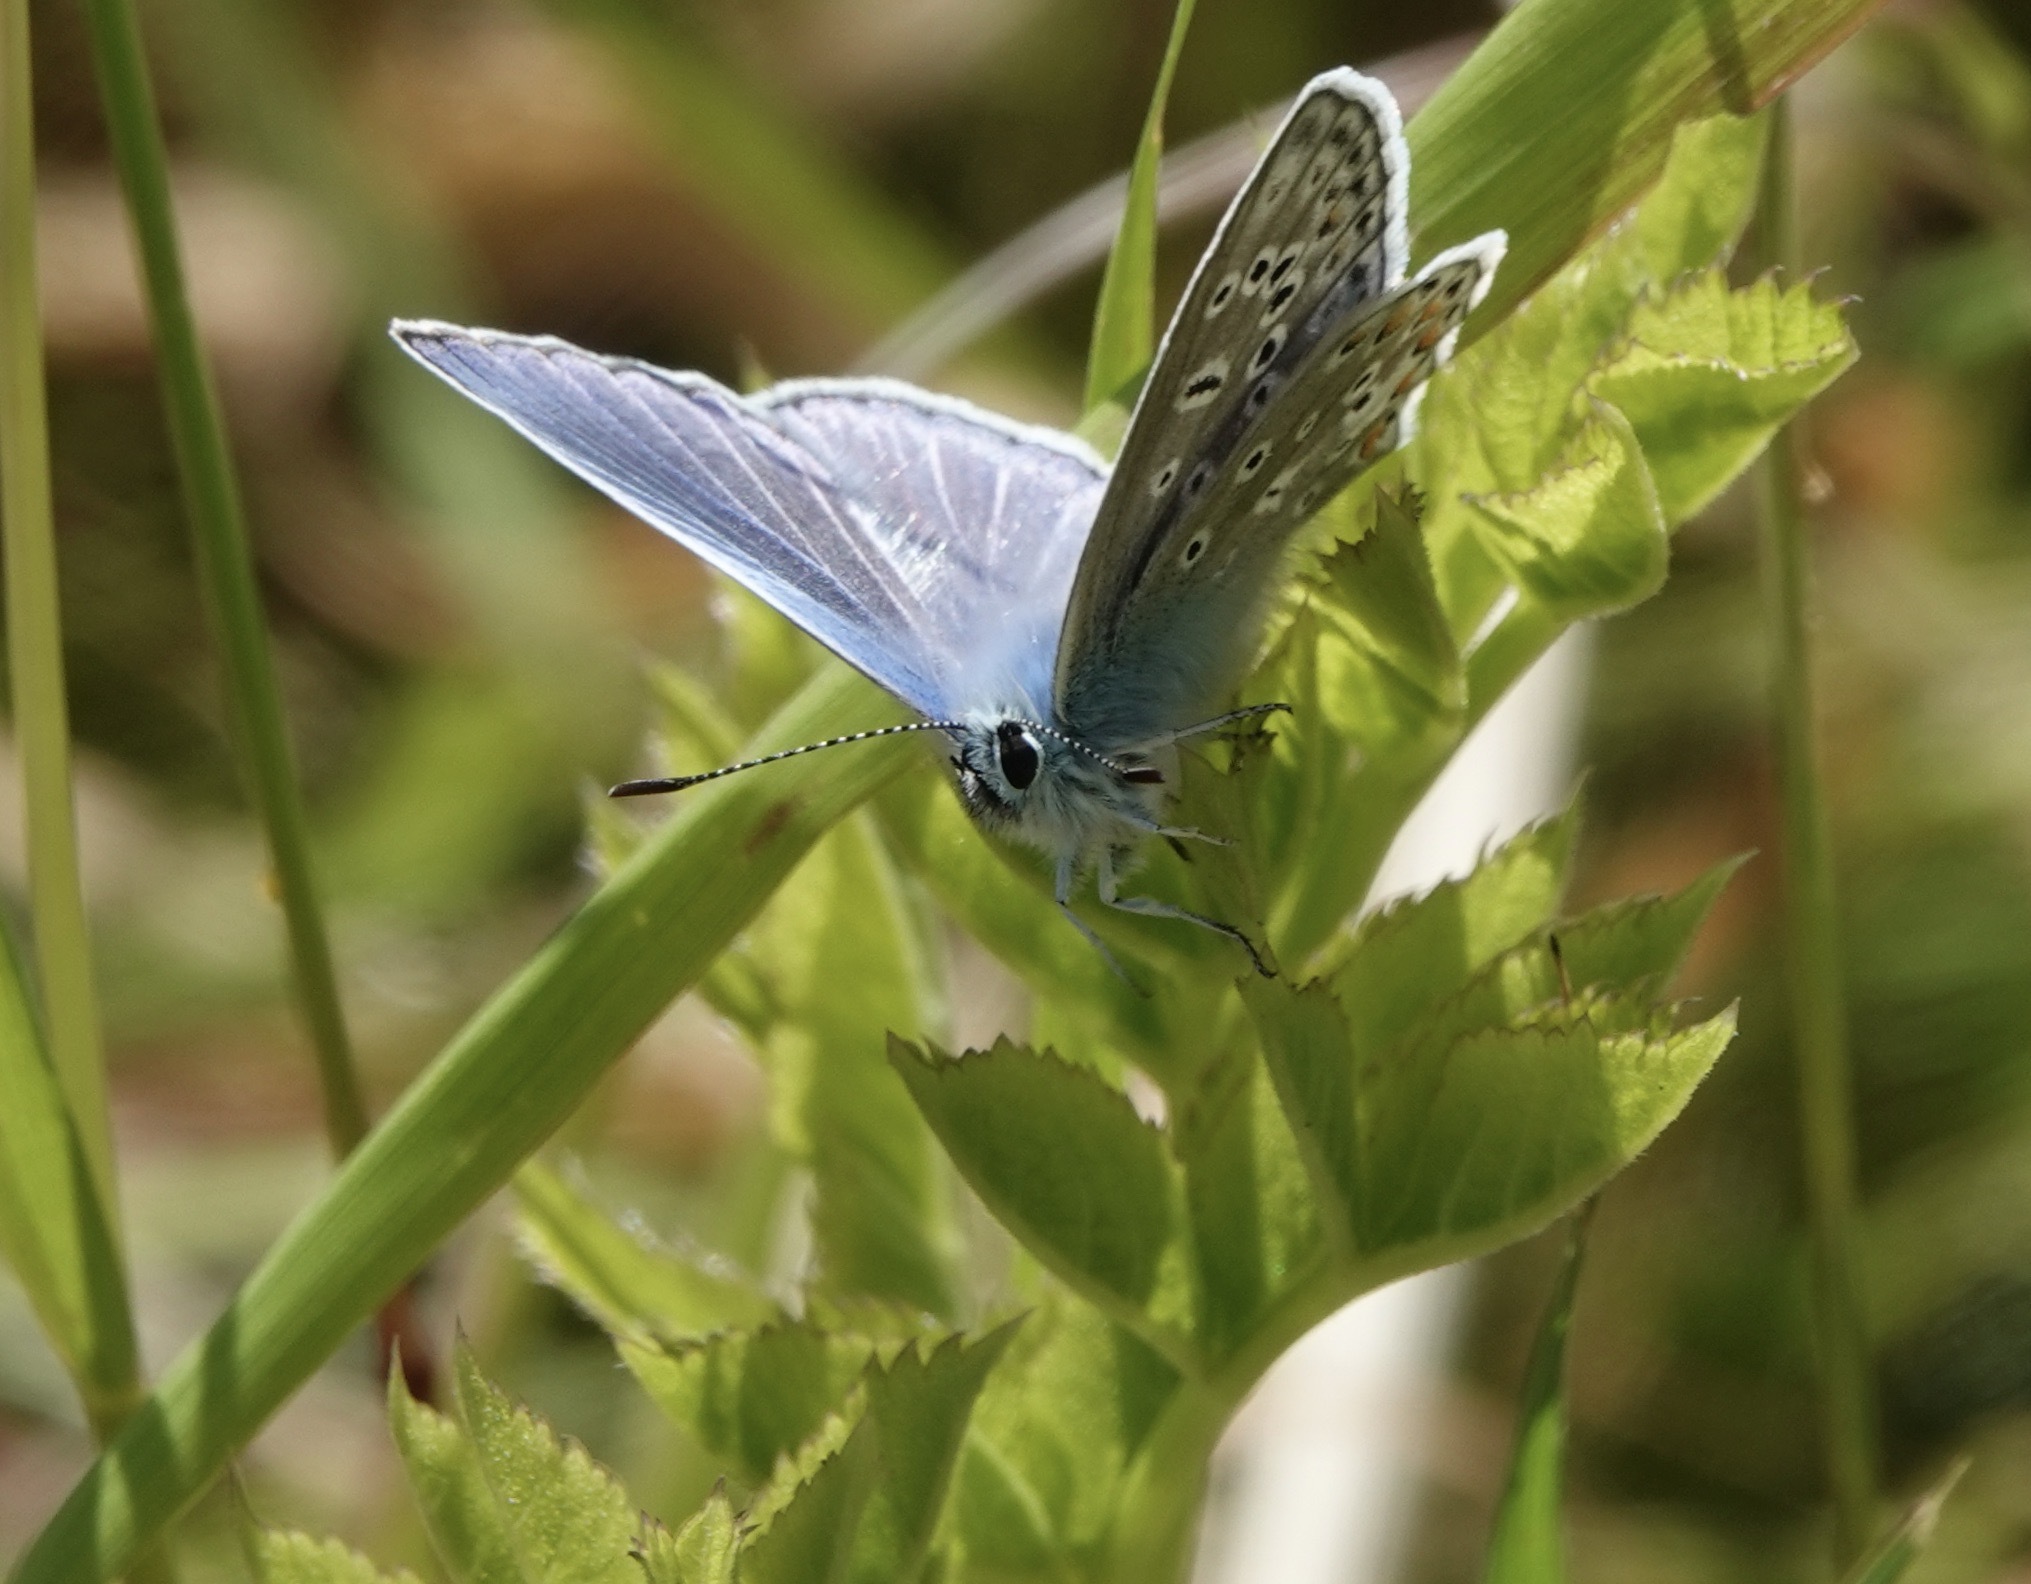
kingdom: Animalia
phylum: Arthropoda
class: Insecta
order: Lepidoptera
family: Lycaenidae
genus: Polyommatus
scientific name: Polyommatus icarus
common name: Common blue
